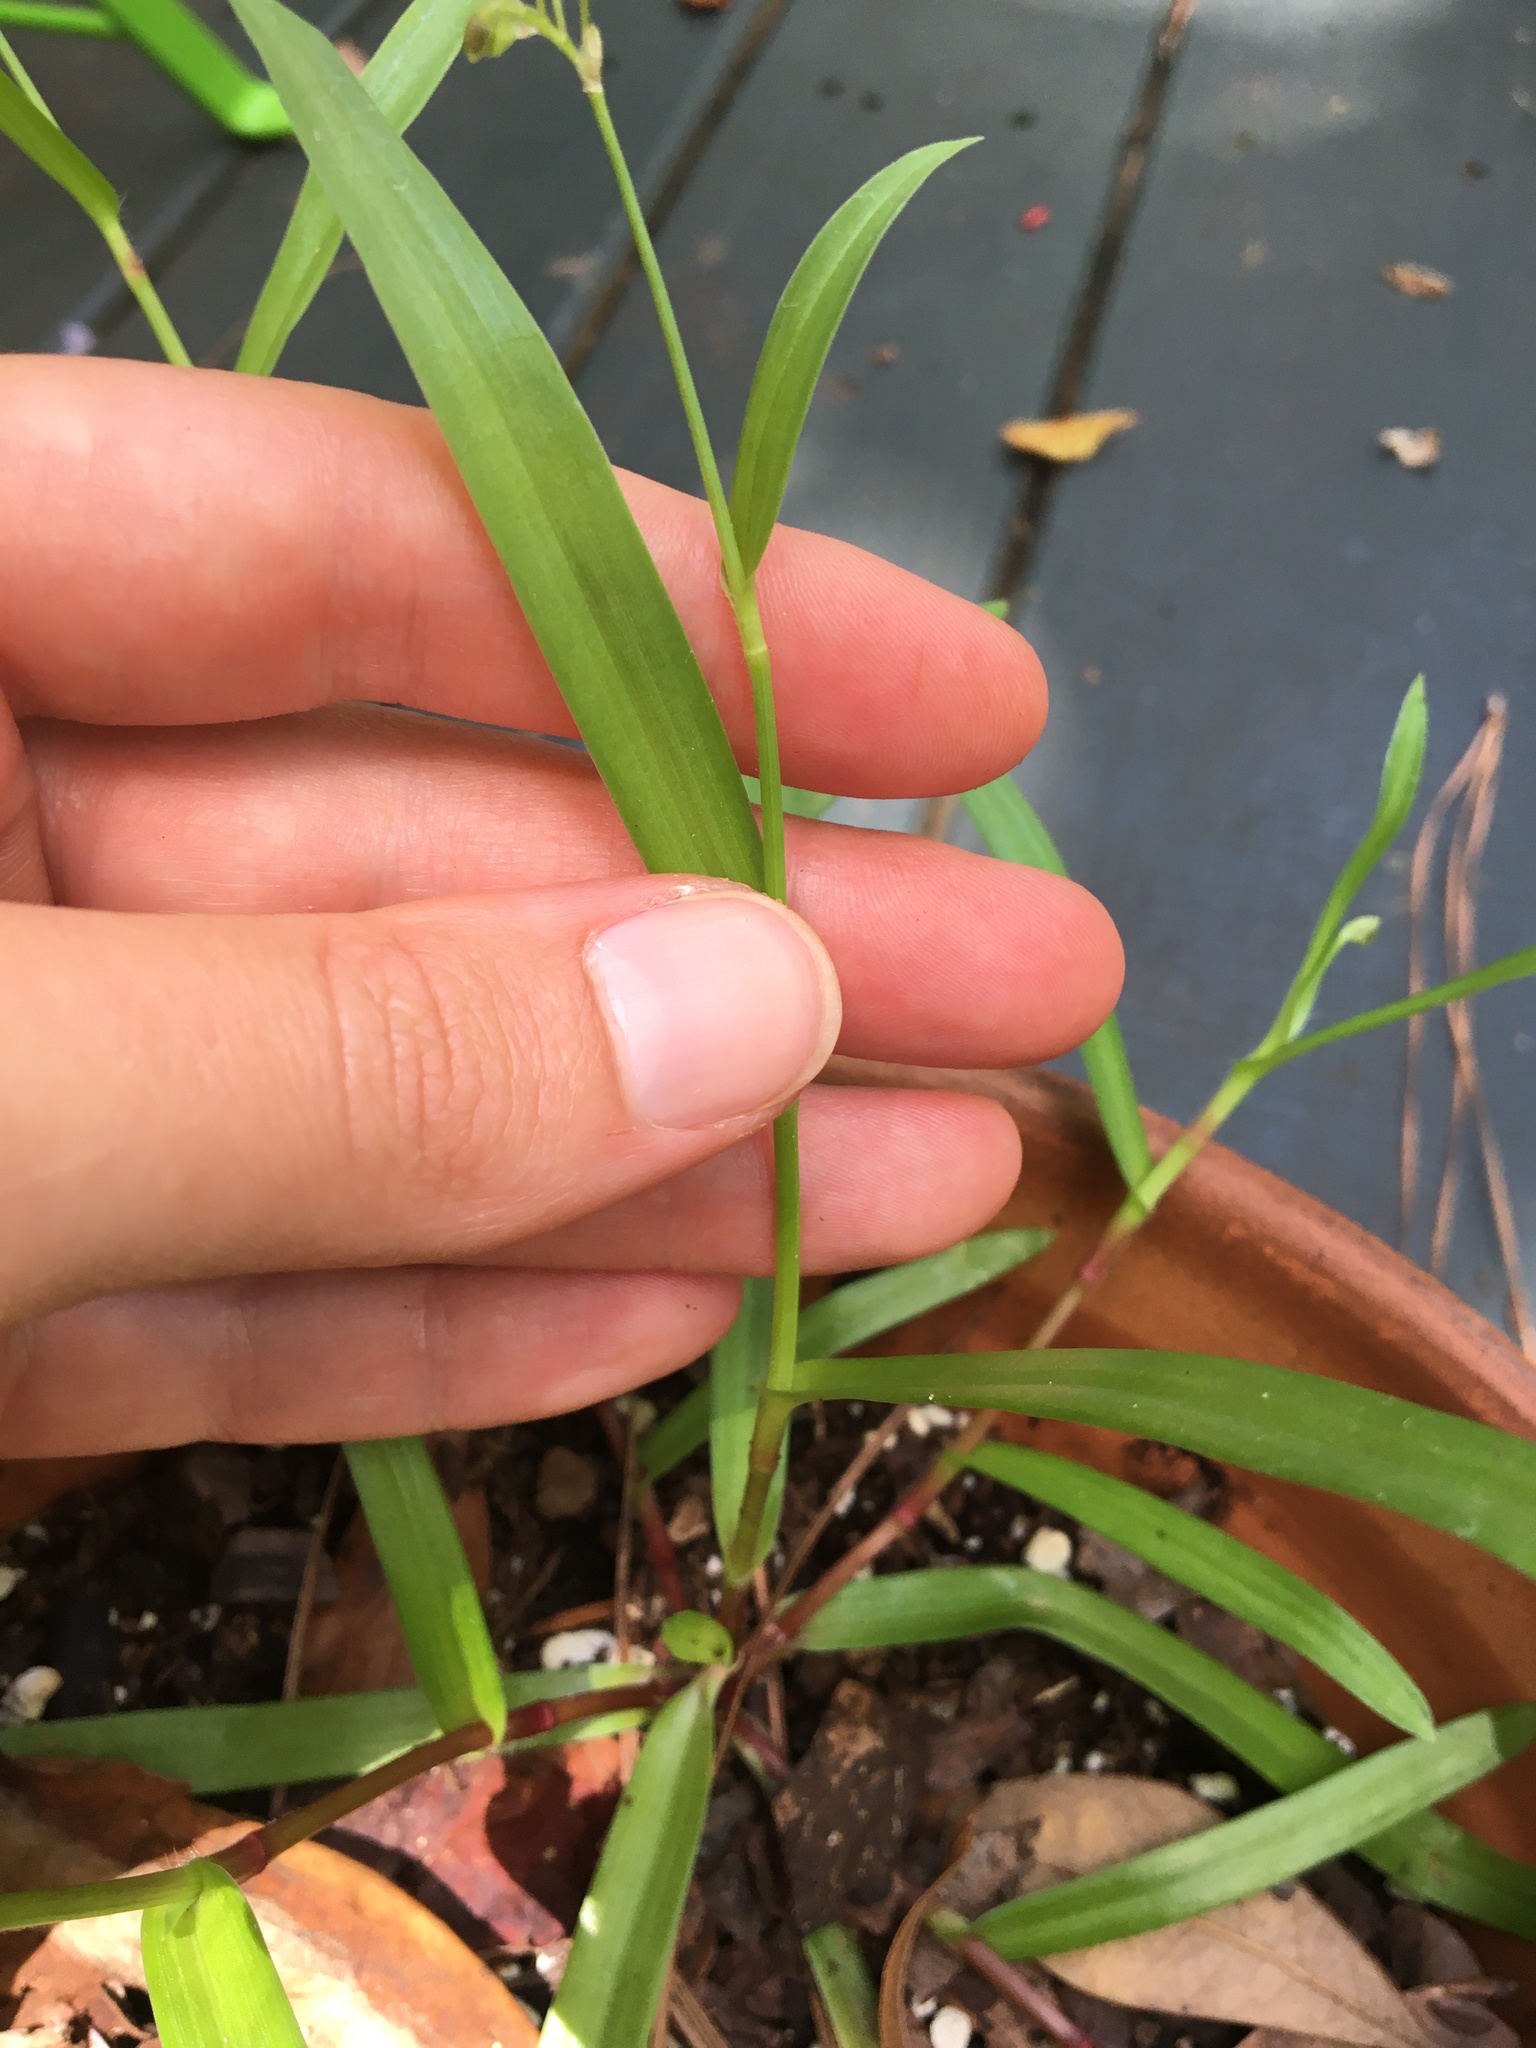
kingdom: Plantae
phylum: Tracheophyta
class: Liliopsida
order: Commelinales
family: Commelinaceae
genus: Murdannia
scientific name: Murdannia nudiflora
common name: Nakedstem dewflower
